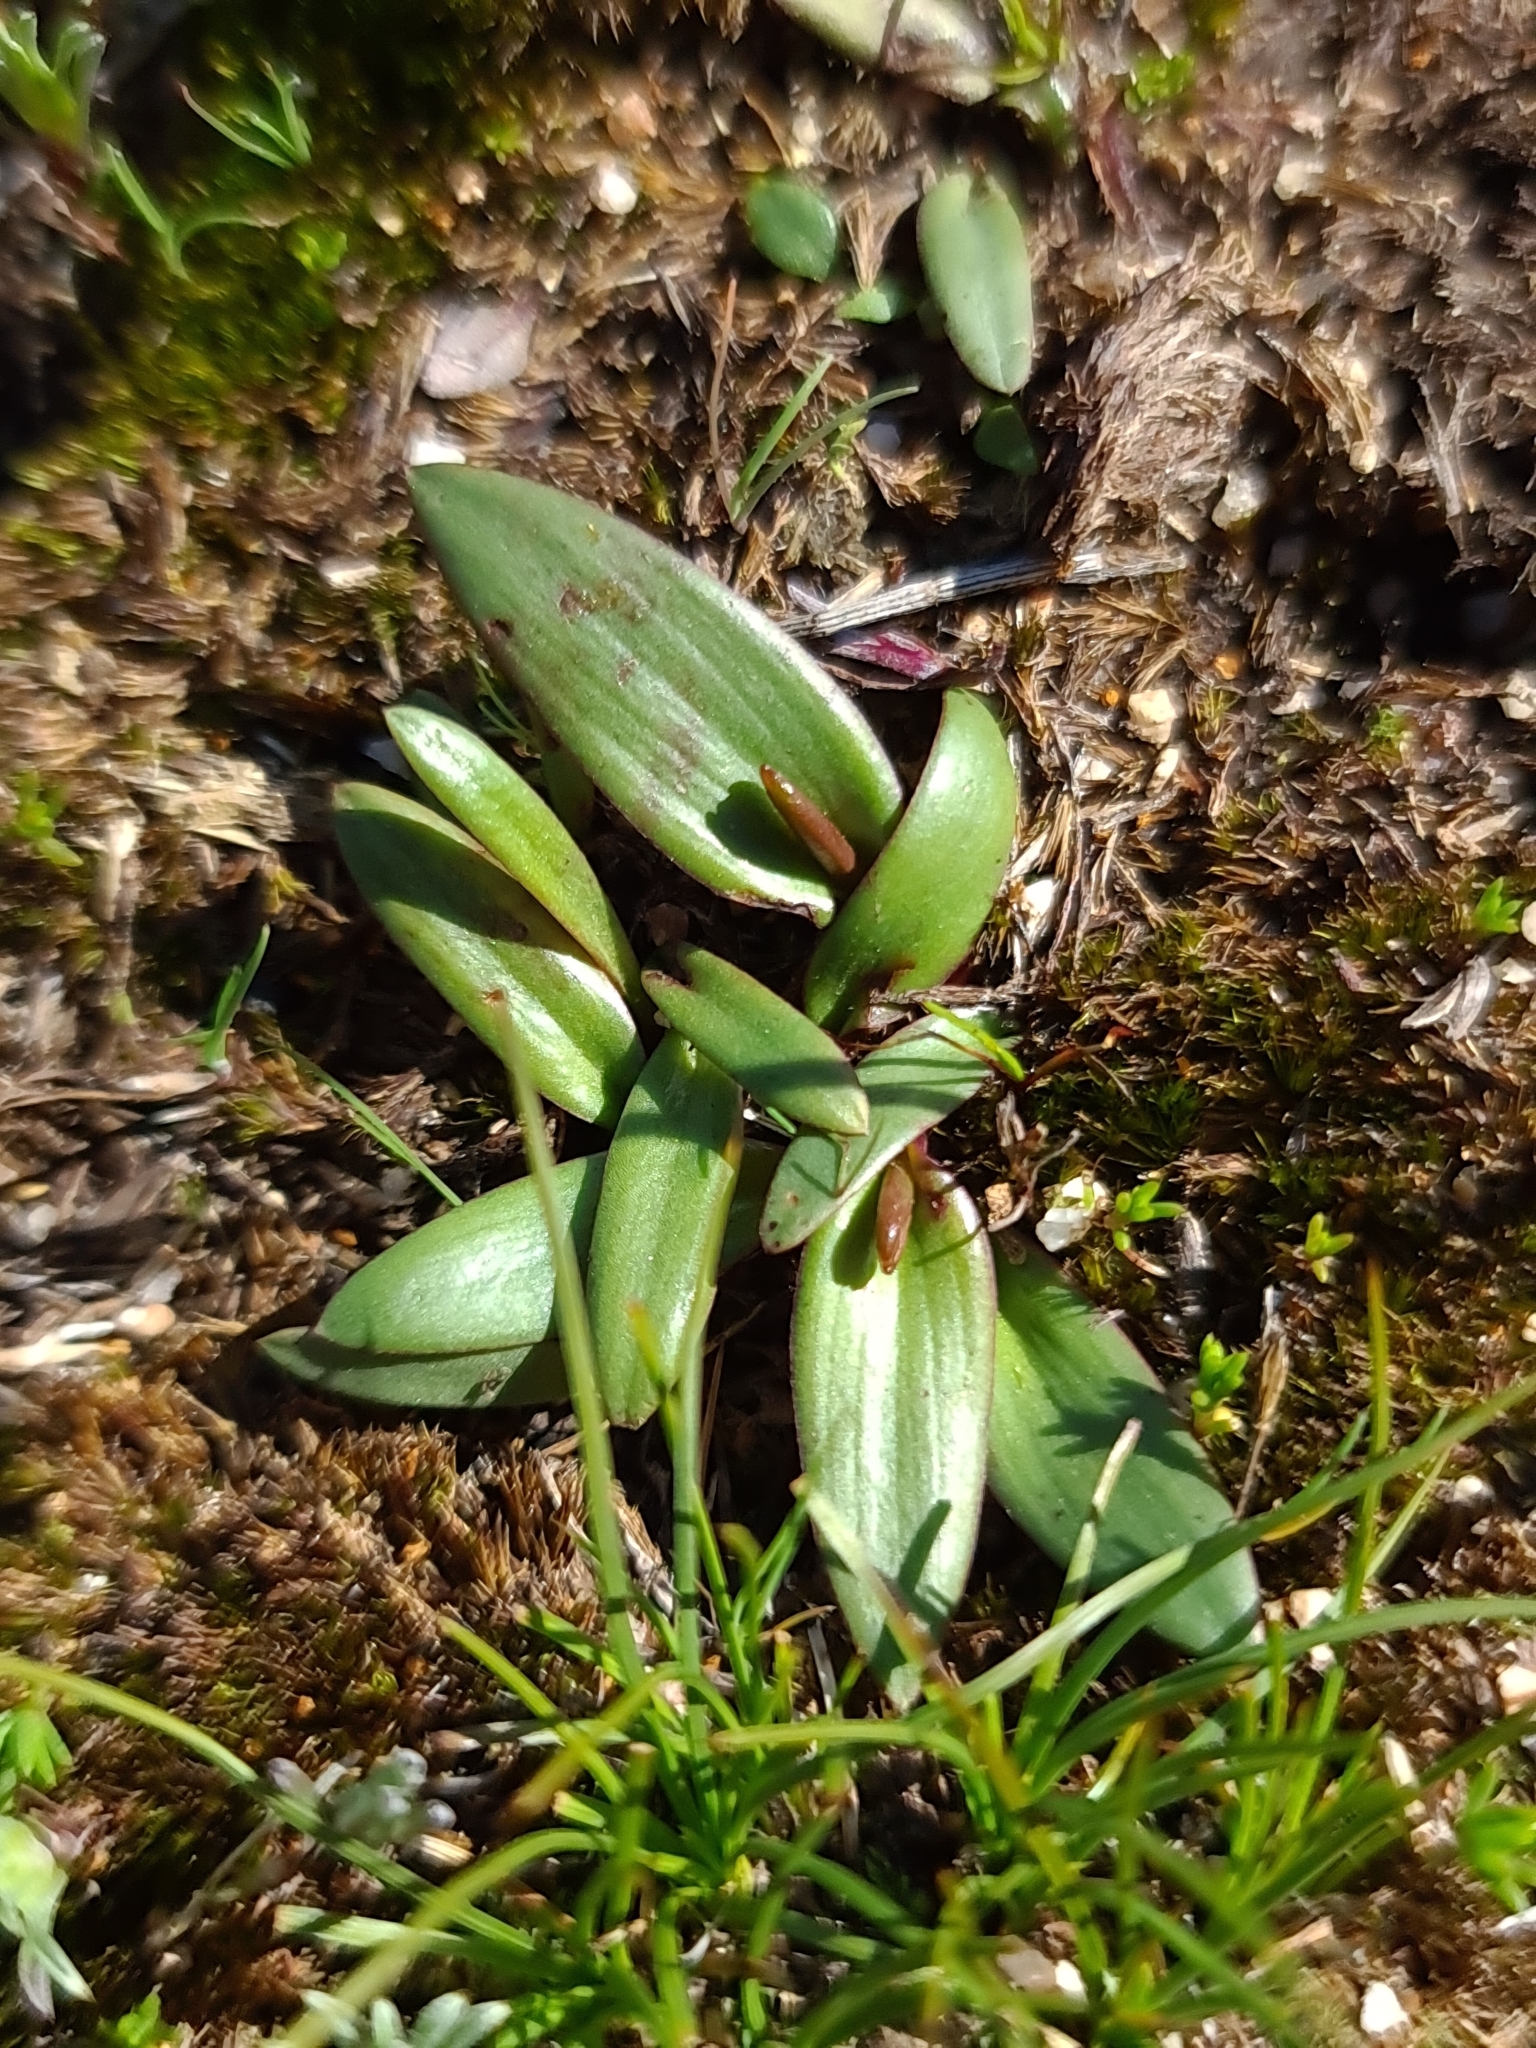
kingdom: Plantae
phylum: Tracheophyta
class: Liliopsida
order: Asparagales
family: Orchidaceae
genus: Spiculaea
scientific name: Spiculaea ciliata
